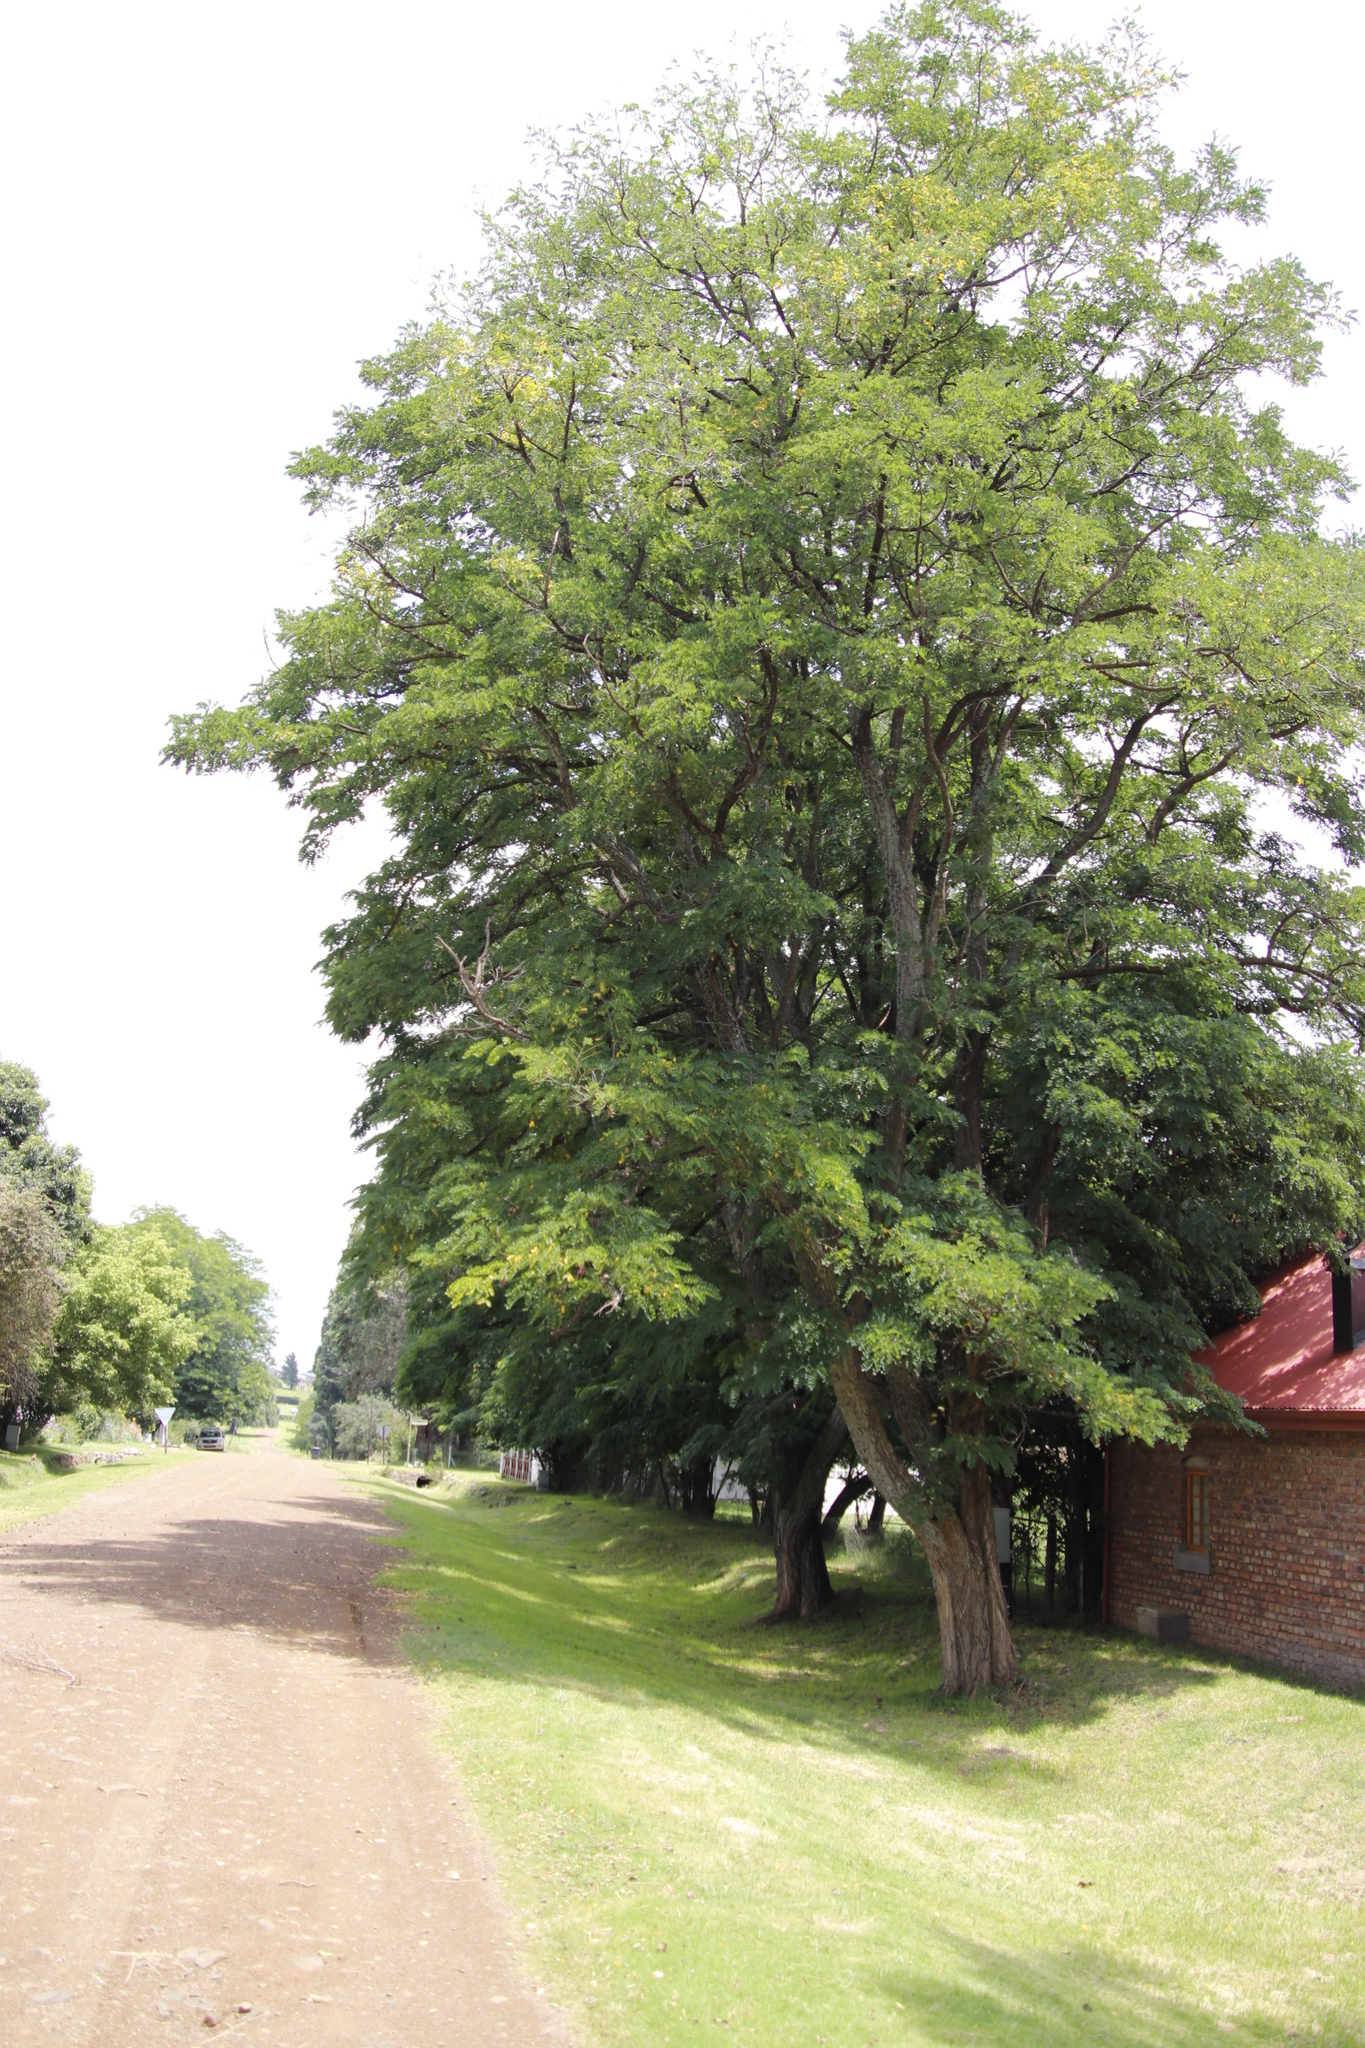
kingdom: Plantae
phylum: Tracheophyta
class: Magnoliopsida
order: Fabales
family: Fabaceae
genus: Robinia
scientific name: Robinia pseudoacacia
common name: Black locust
